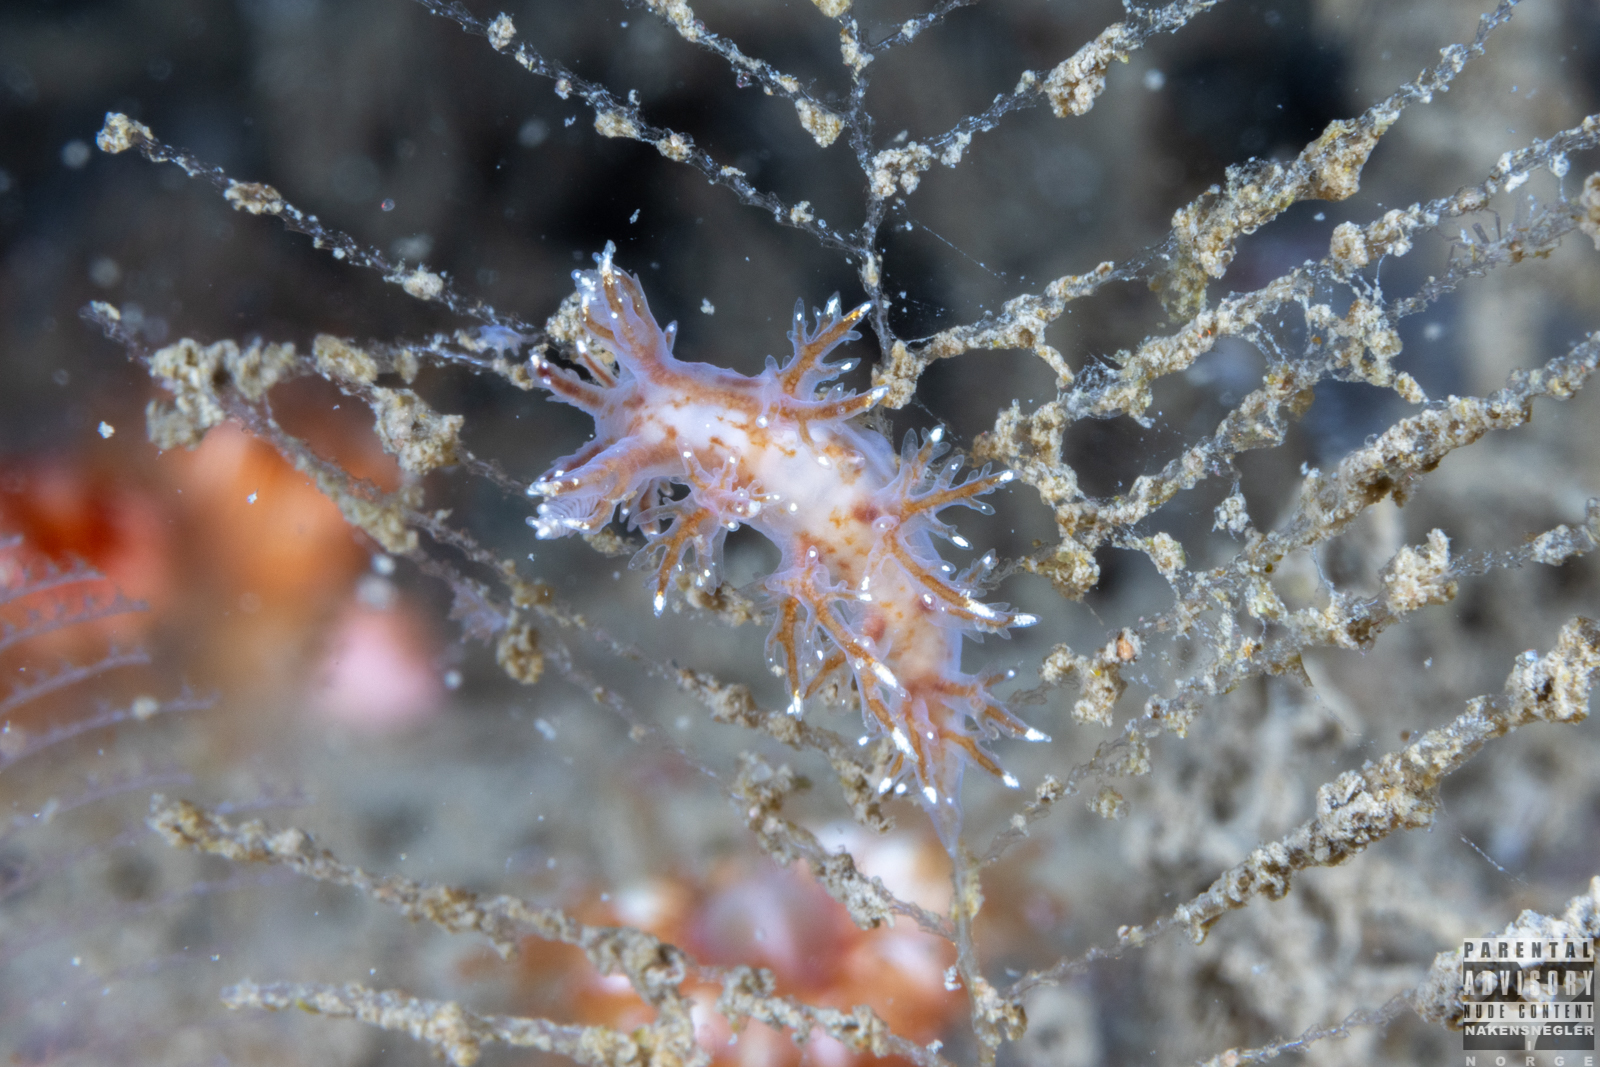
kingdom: Animalia
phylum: Mollusca
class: Gastropoda
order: Nudibranchia
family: Dendronotidae
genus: Dendronotus
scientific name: Dendronotus frondosus
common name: Bushy-backed nudibranch
